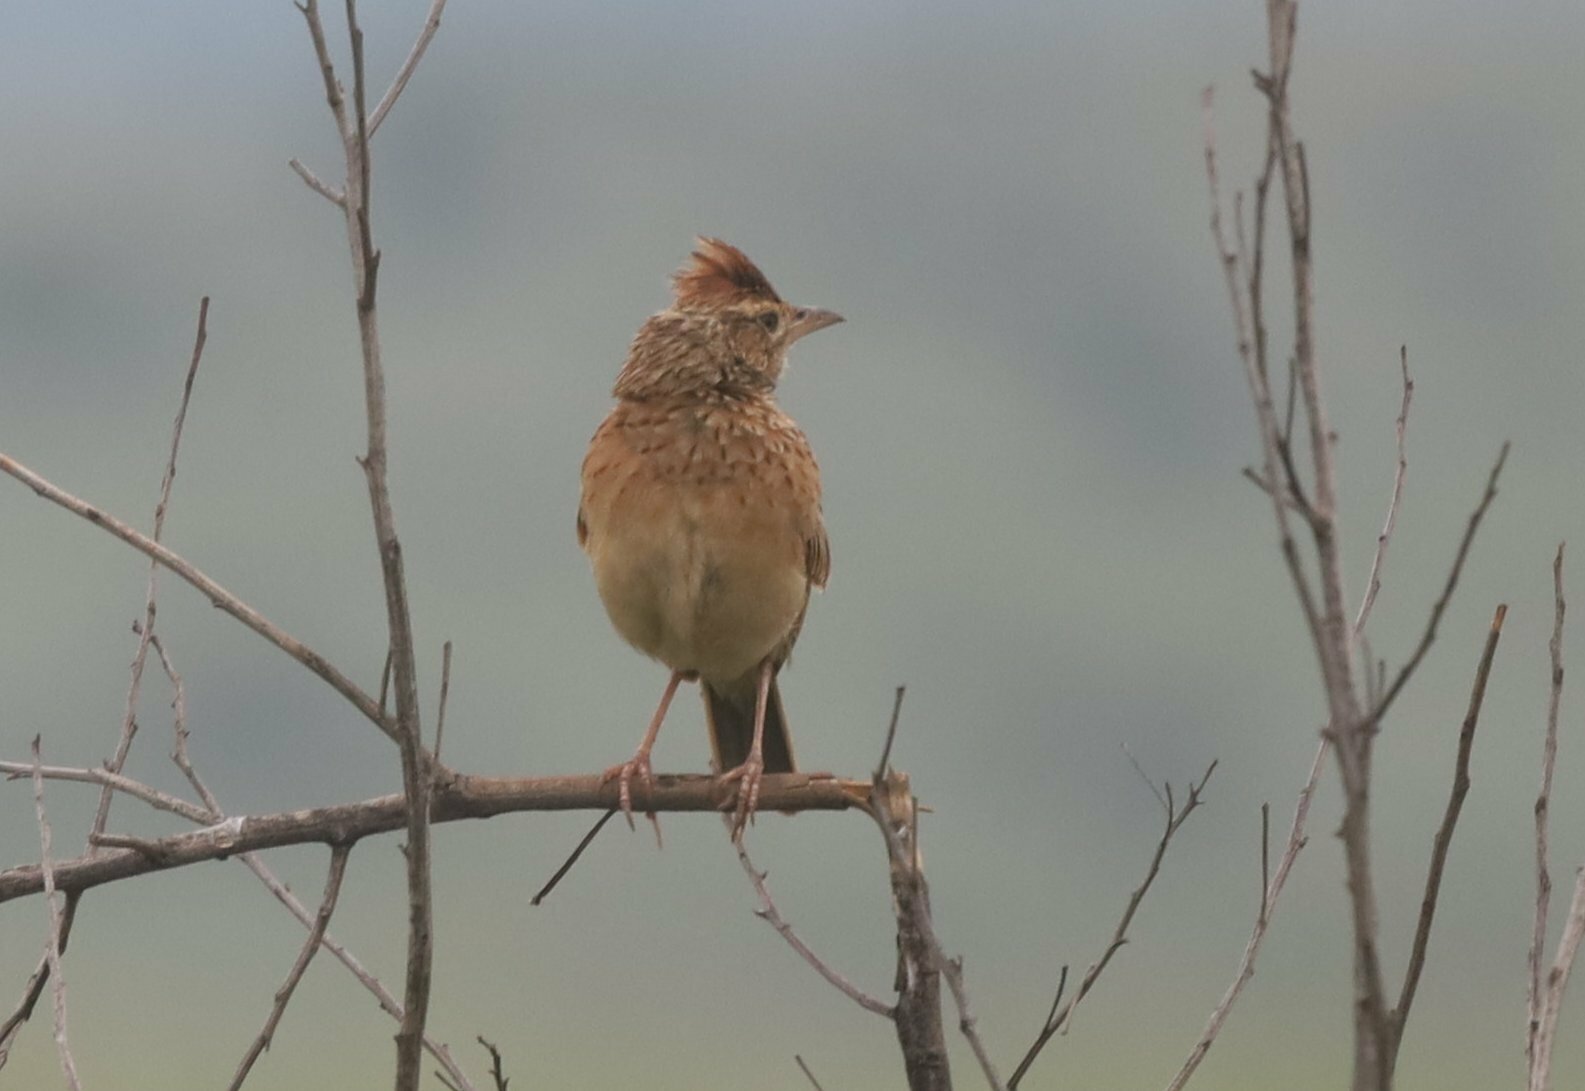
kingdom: Animalia
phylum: Chordata
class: Aves
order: Passeriformes
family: Alaudidae
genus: Mirafra
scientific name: Mirafra africana
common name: Rufous-naped lark
